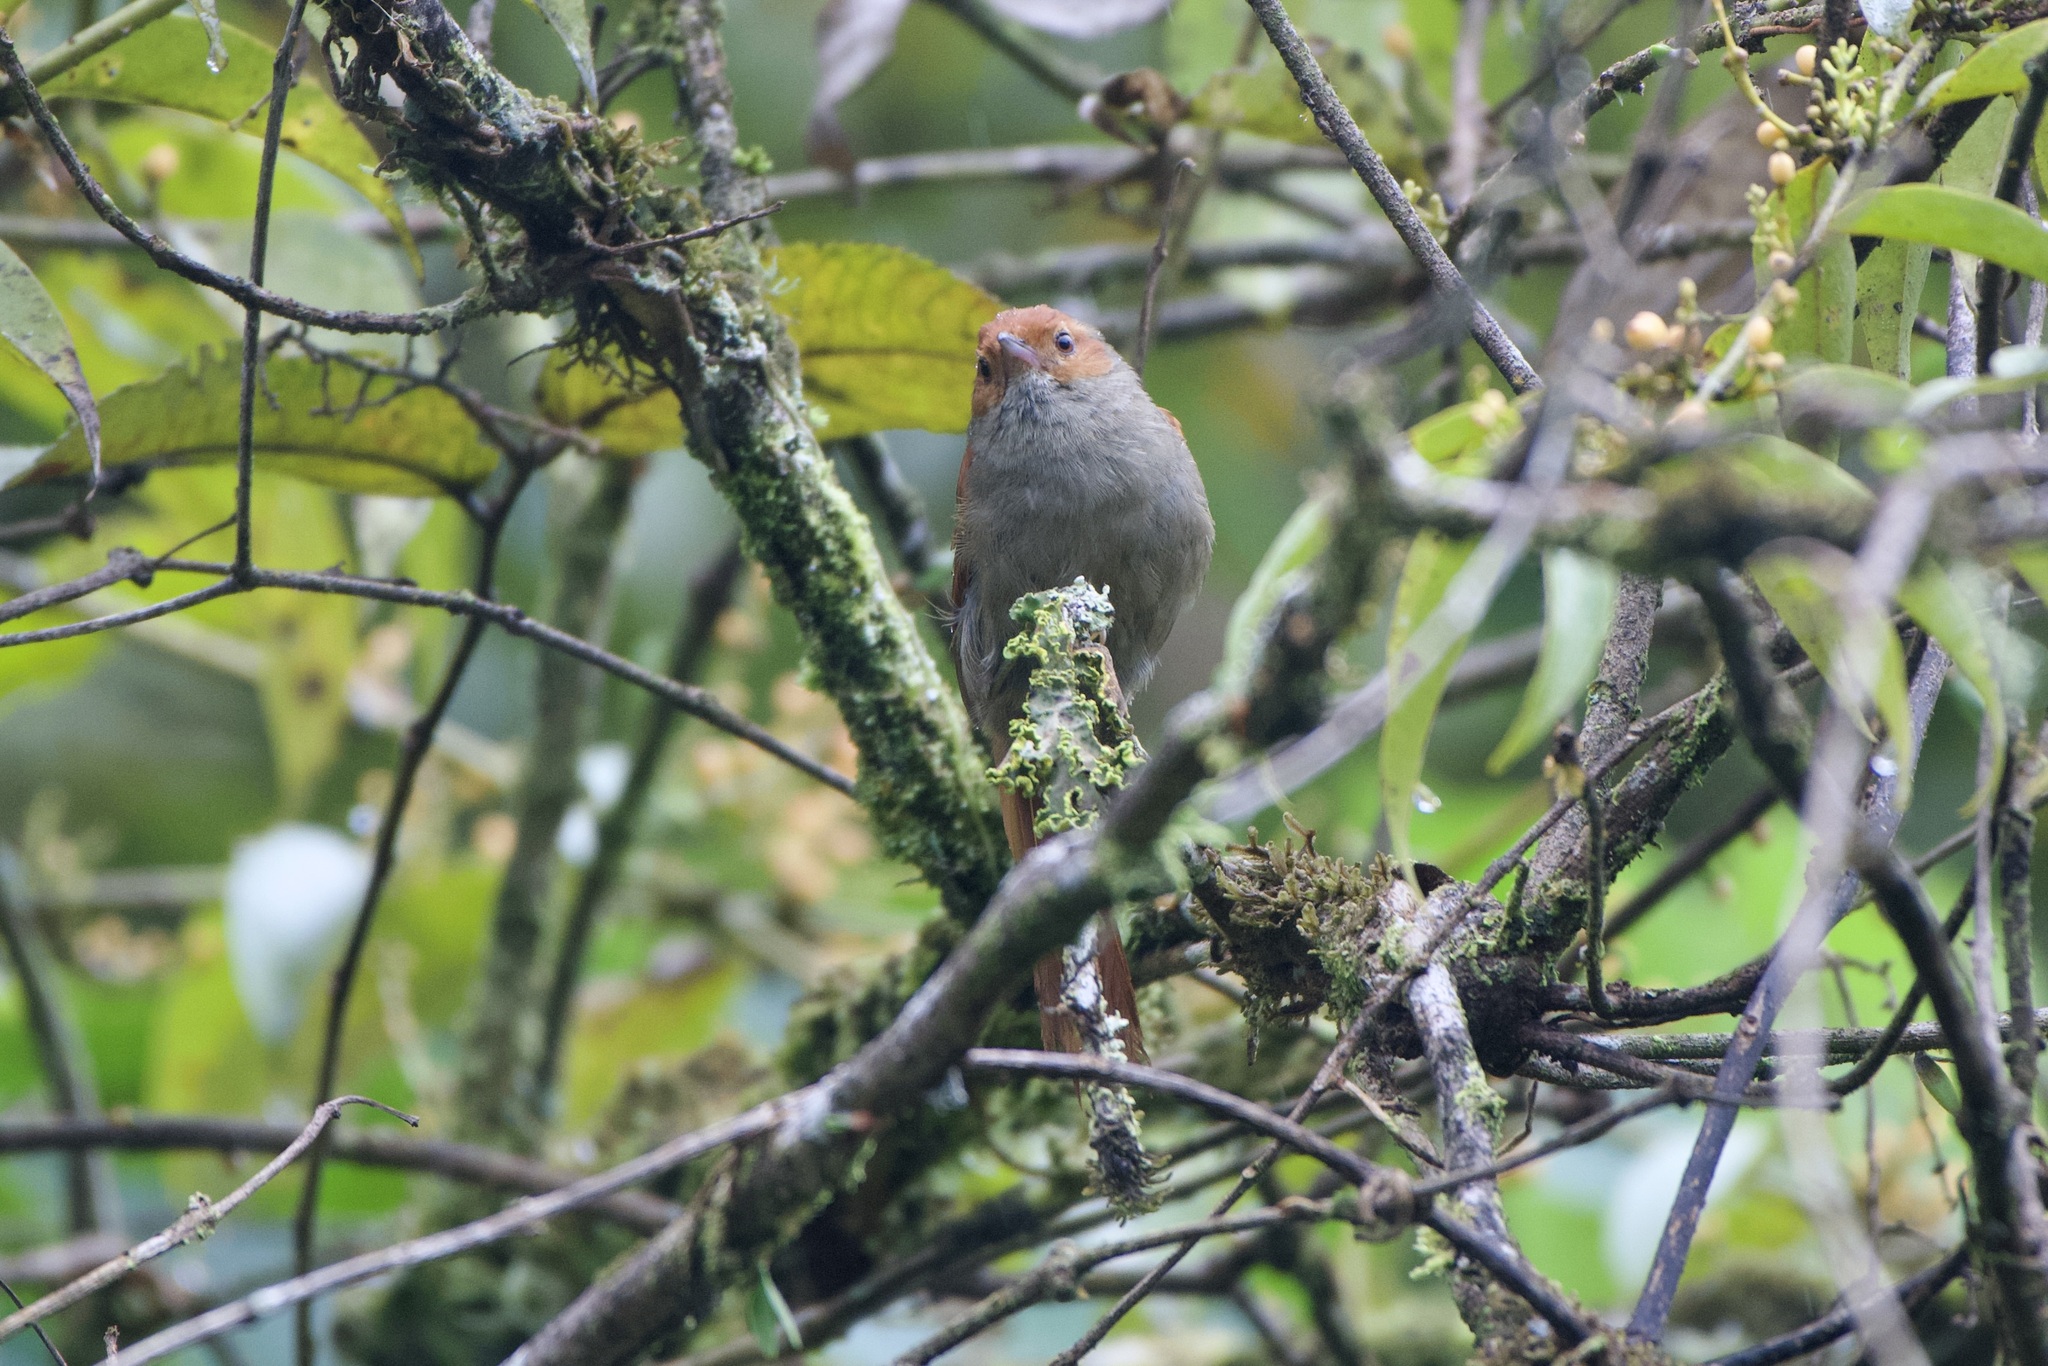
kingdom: Animalia
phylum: Chordata
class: Aves
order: Passeriformes
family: Furnariidae
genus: Cranioleuca
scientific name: Cranioleuca erythrops
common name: Red-faced spinetail
